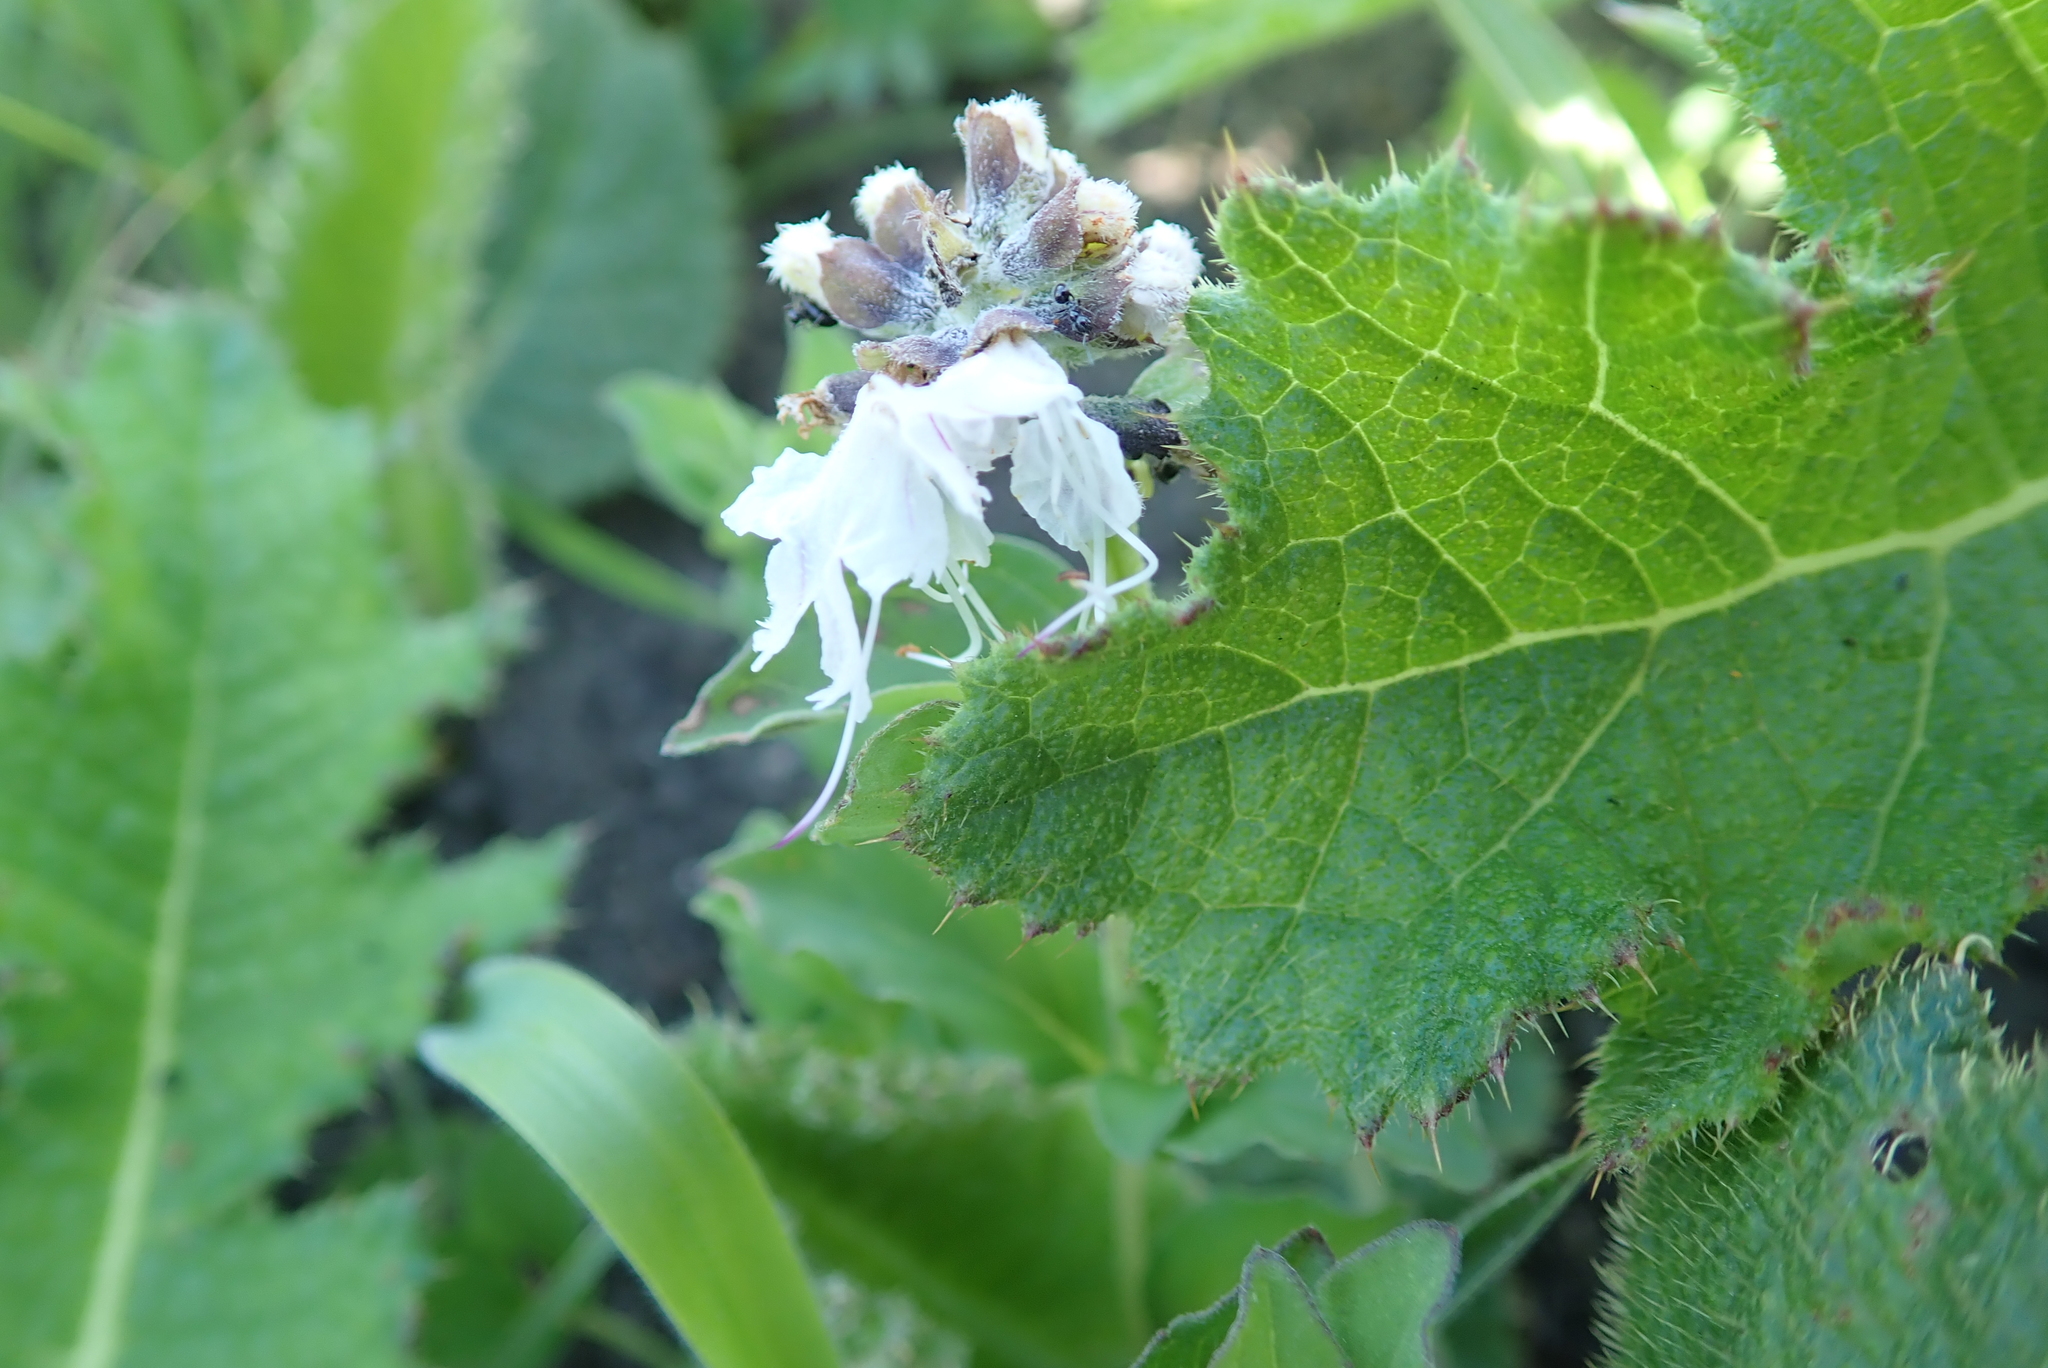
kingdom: Plantae
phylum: Tracheophyta
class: Magnoliopsida
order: Lamiales
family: Lamiaceae
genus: Ocimum
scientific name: Ocimum obovatum
